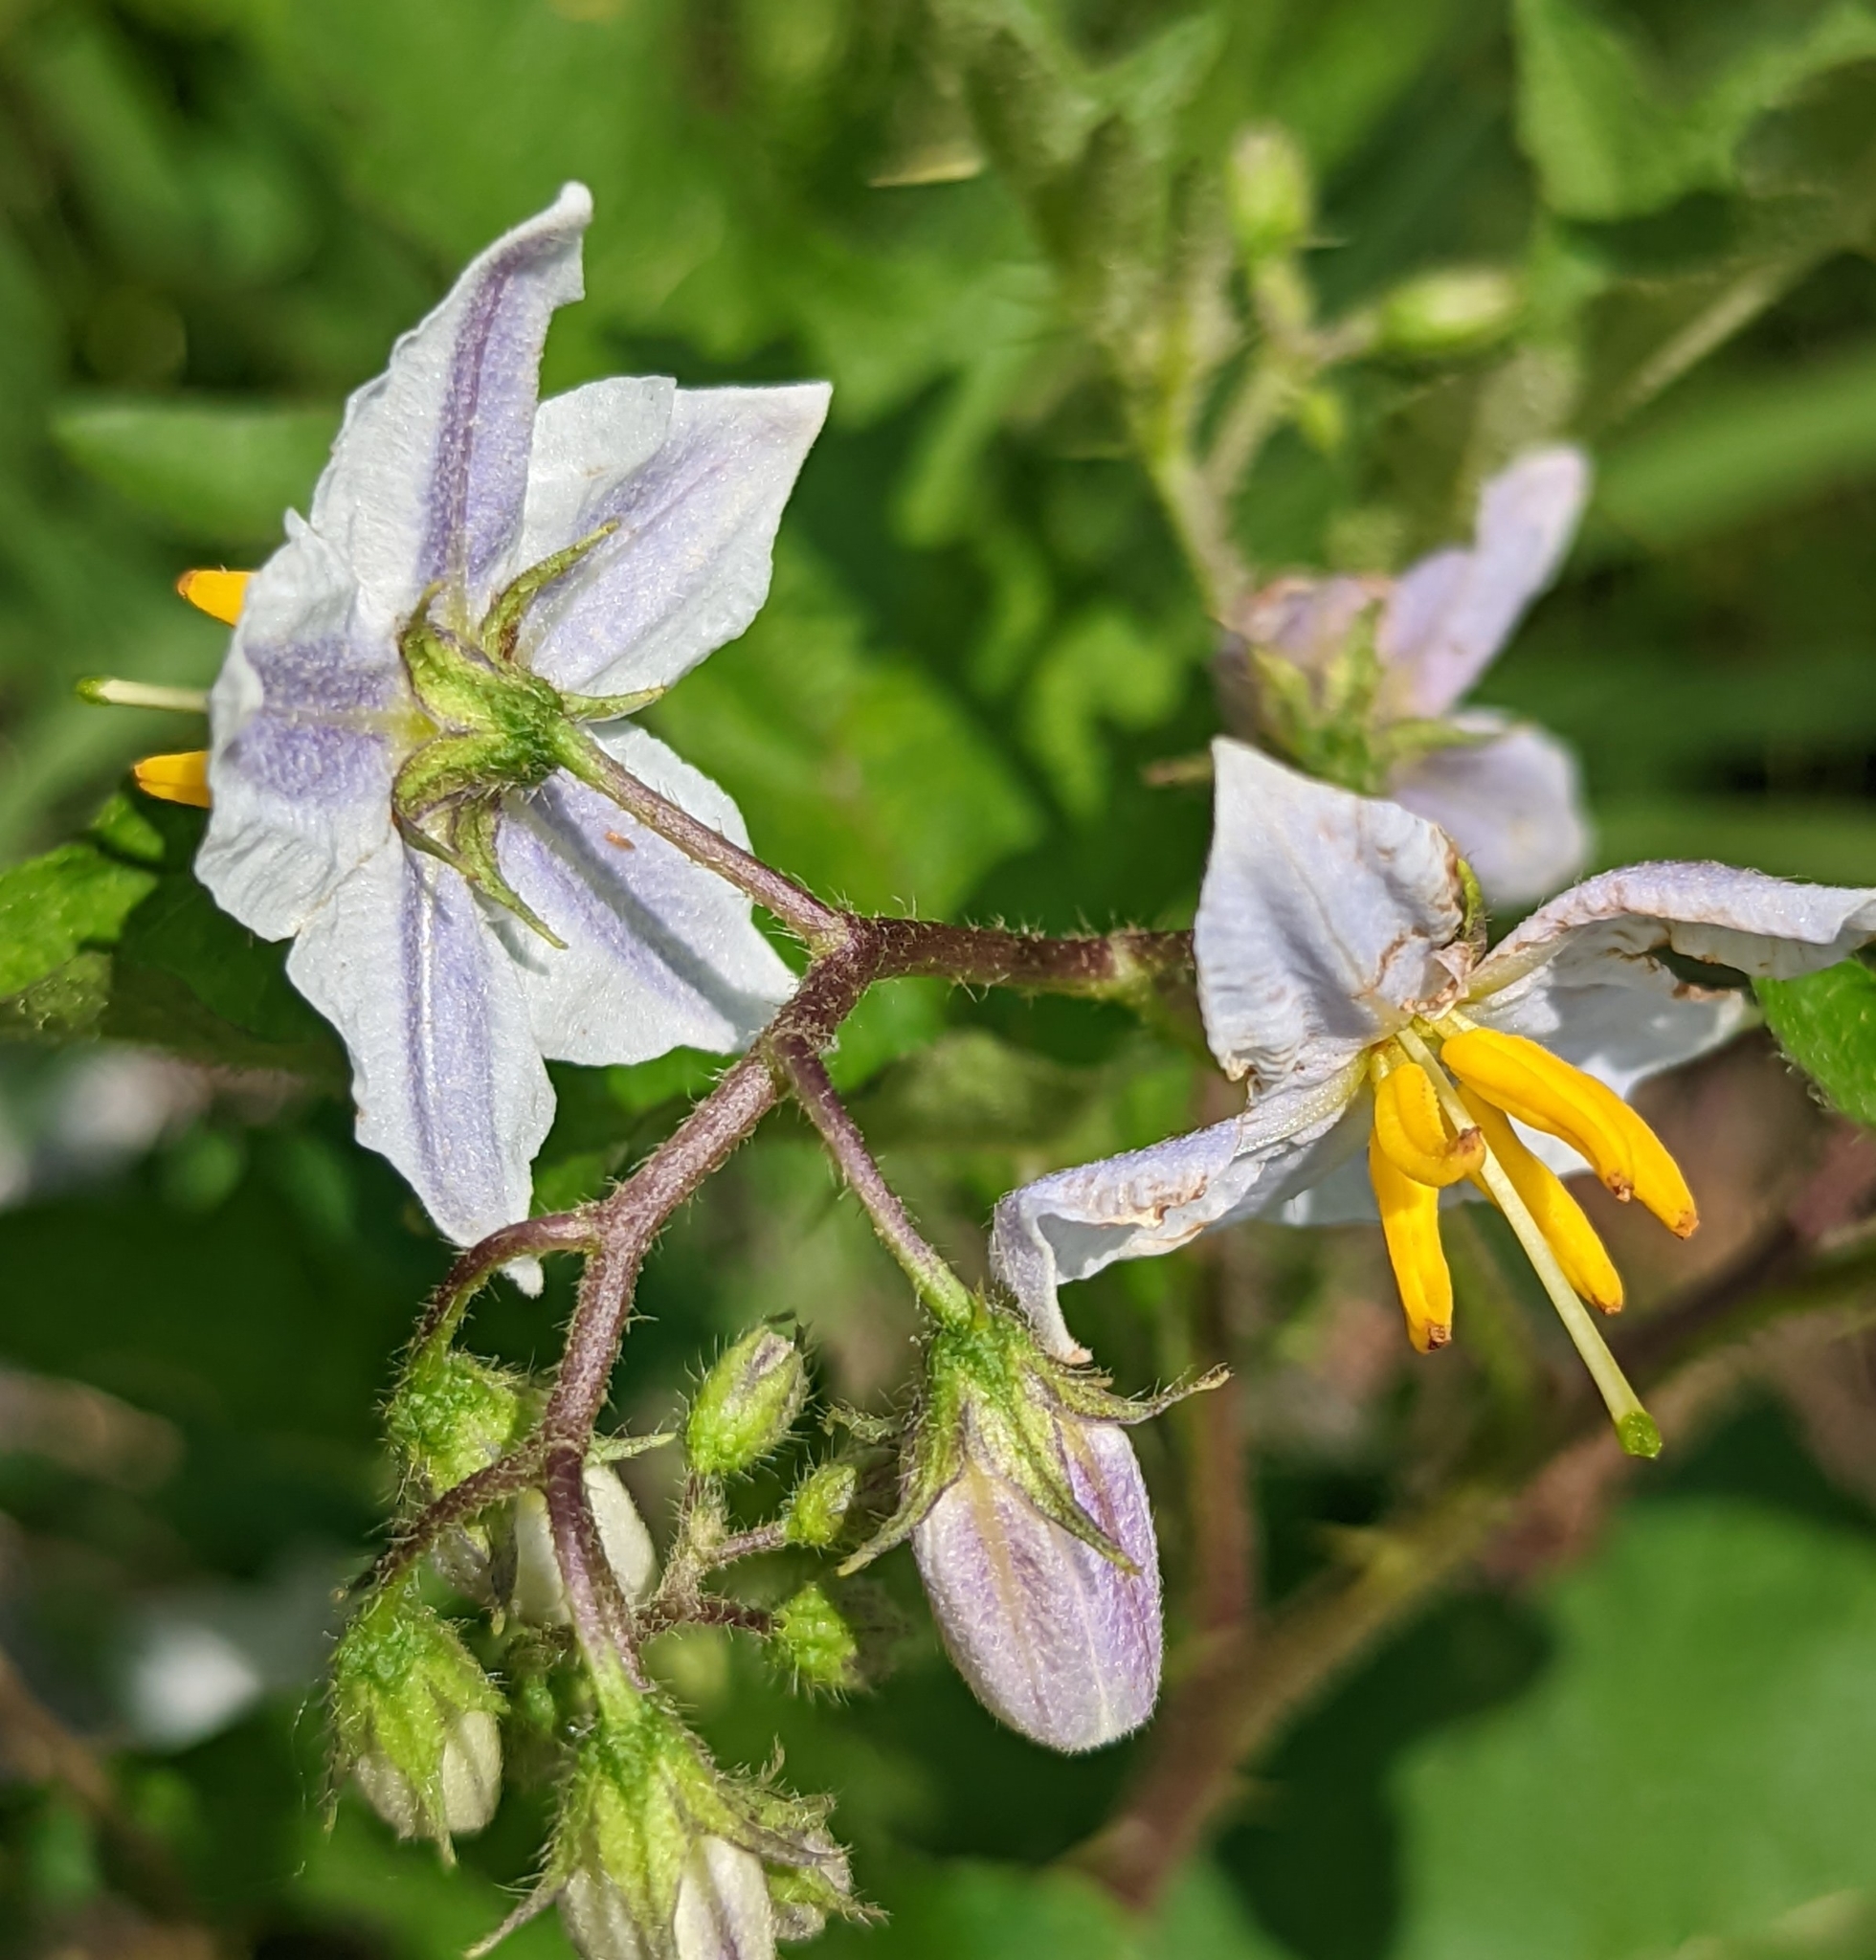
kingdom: Plantae
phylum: Tracheophyta
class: Magnoliopsida
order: Solanales
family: Solanaceae
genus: Solanum
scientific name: Solanum carolinense
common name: Horse-nettle
